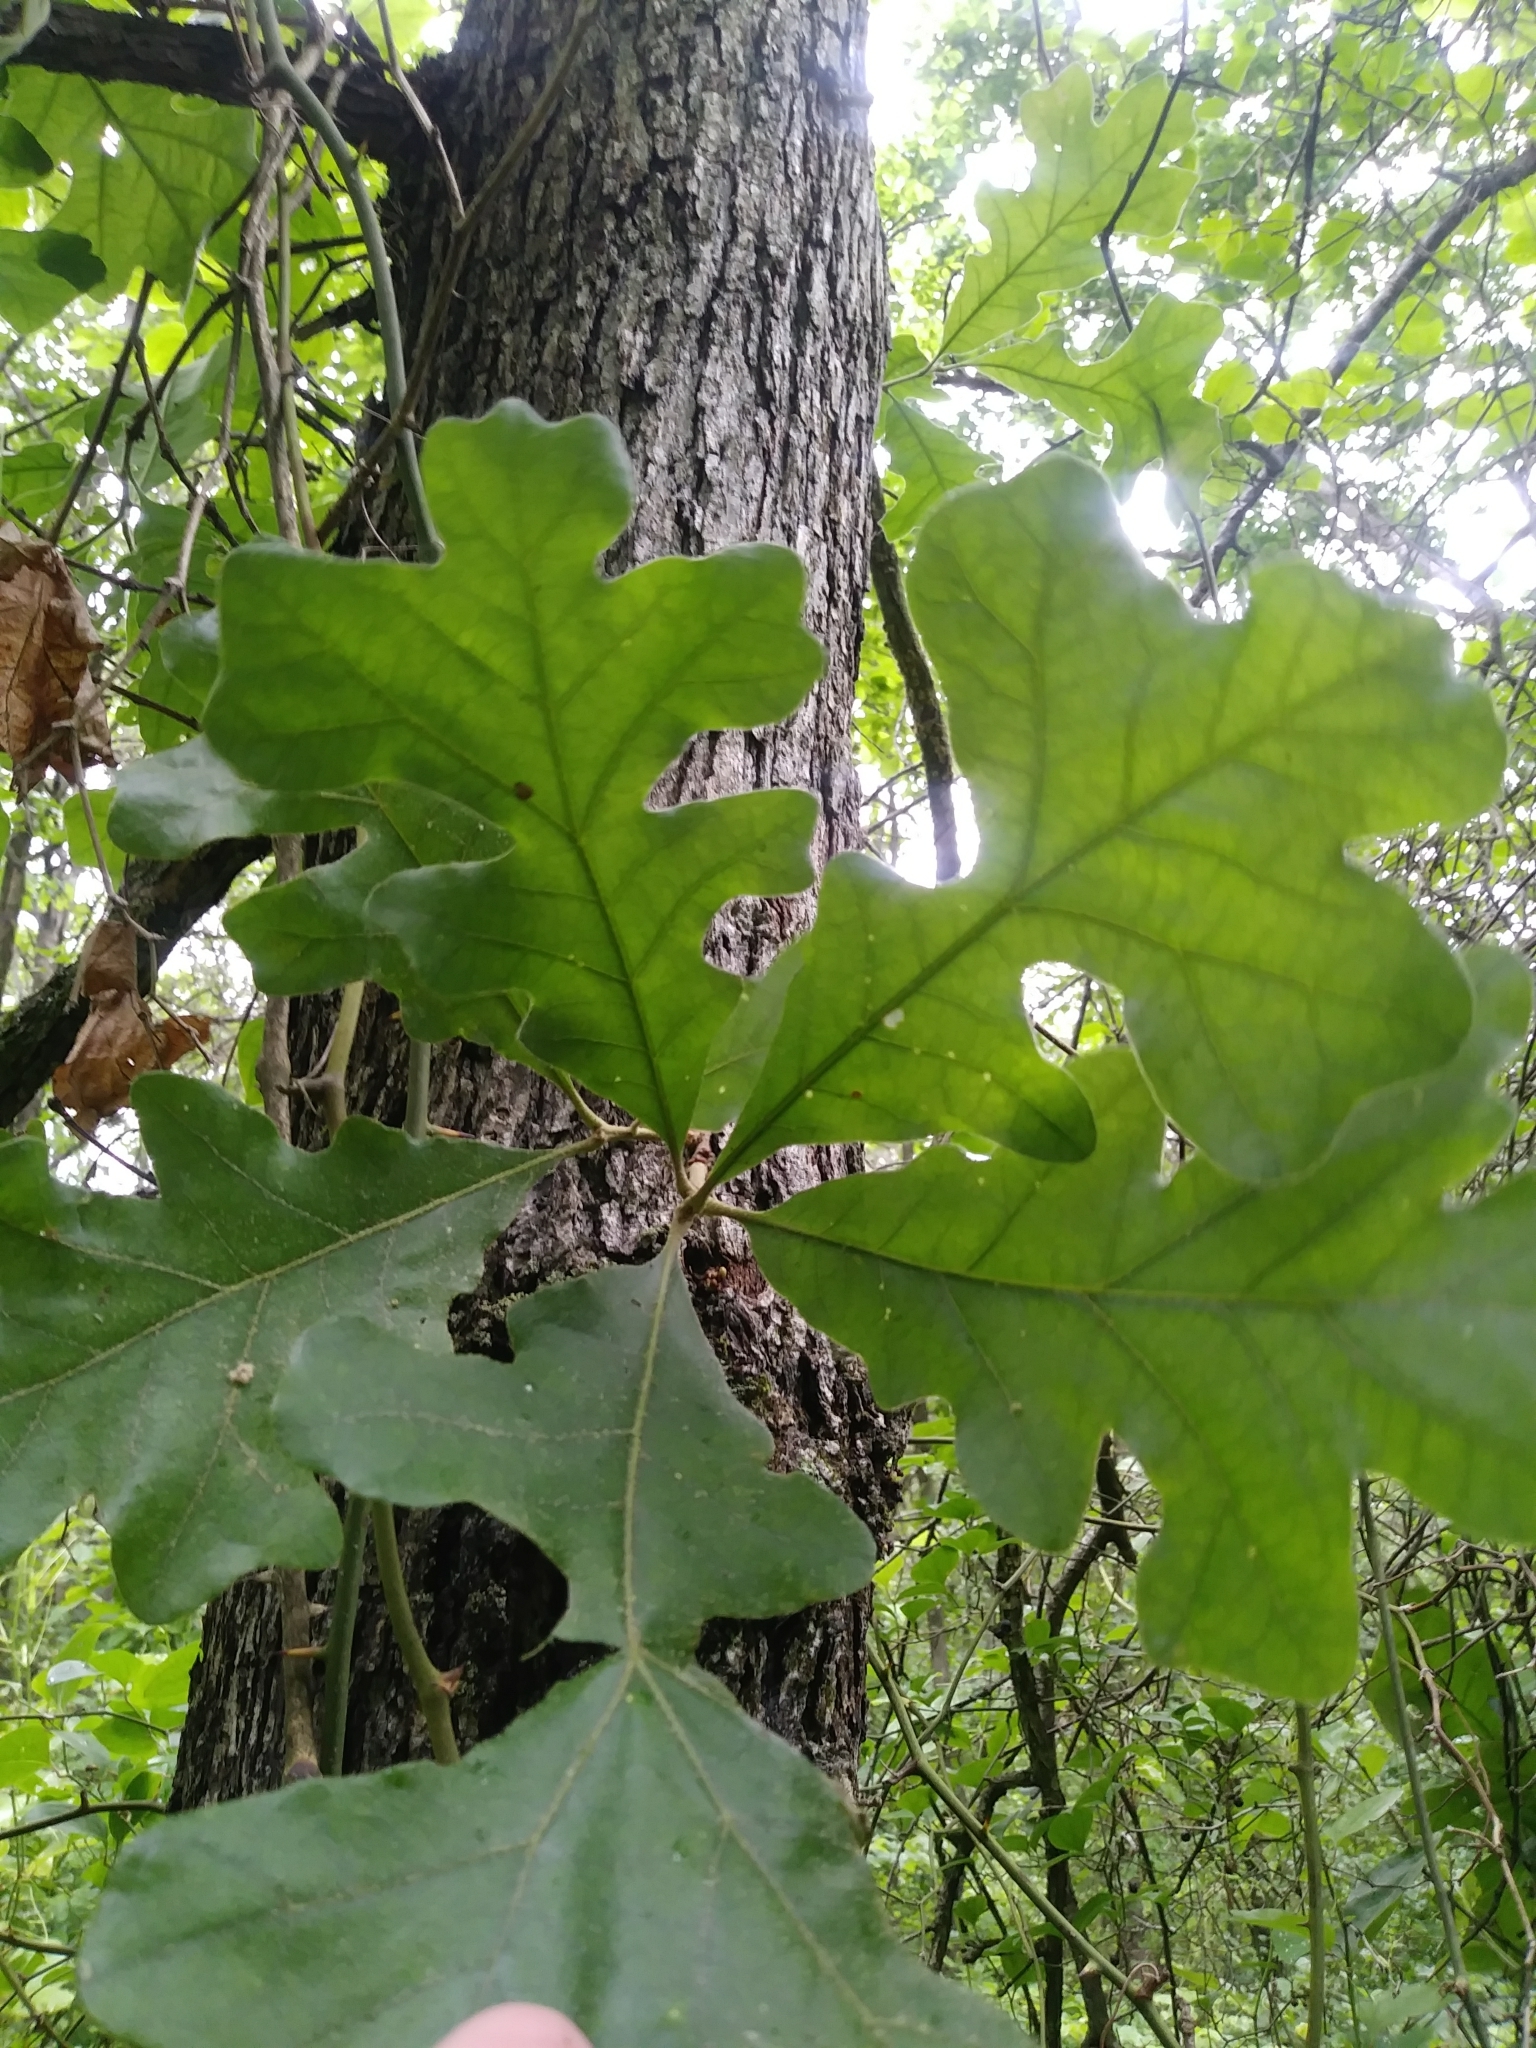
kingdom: Plantae
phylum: Tracheophyta
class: Magnoliopsida
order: Fagales
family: Fagaceae
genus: Quercus
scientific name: Quercus stellata
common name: Post oak
